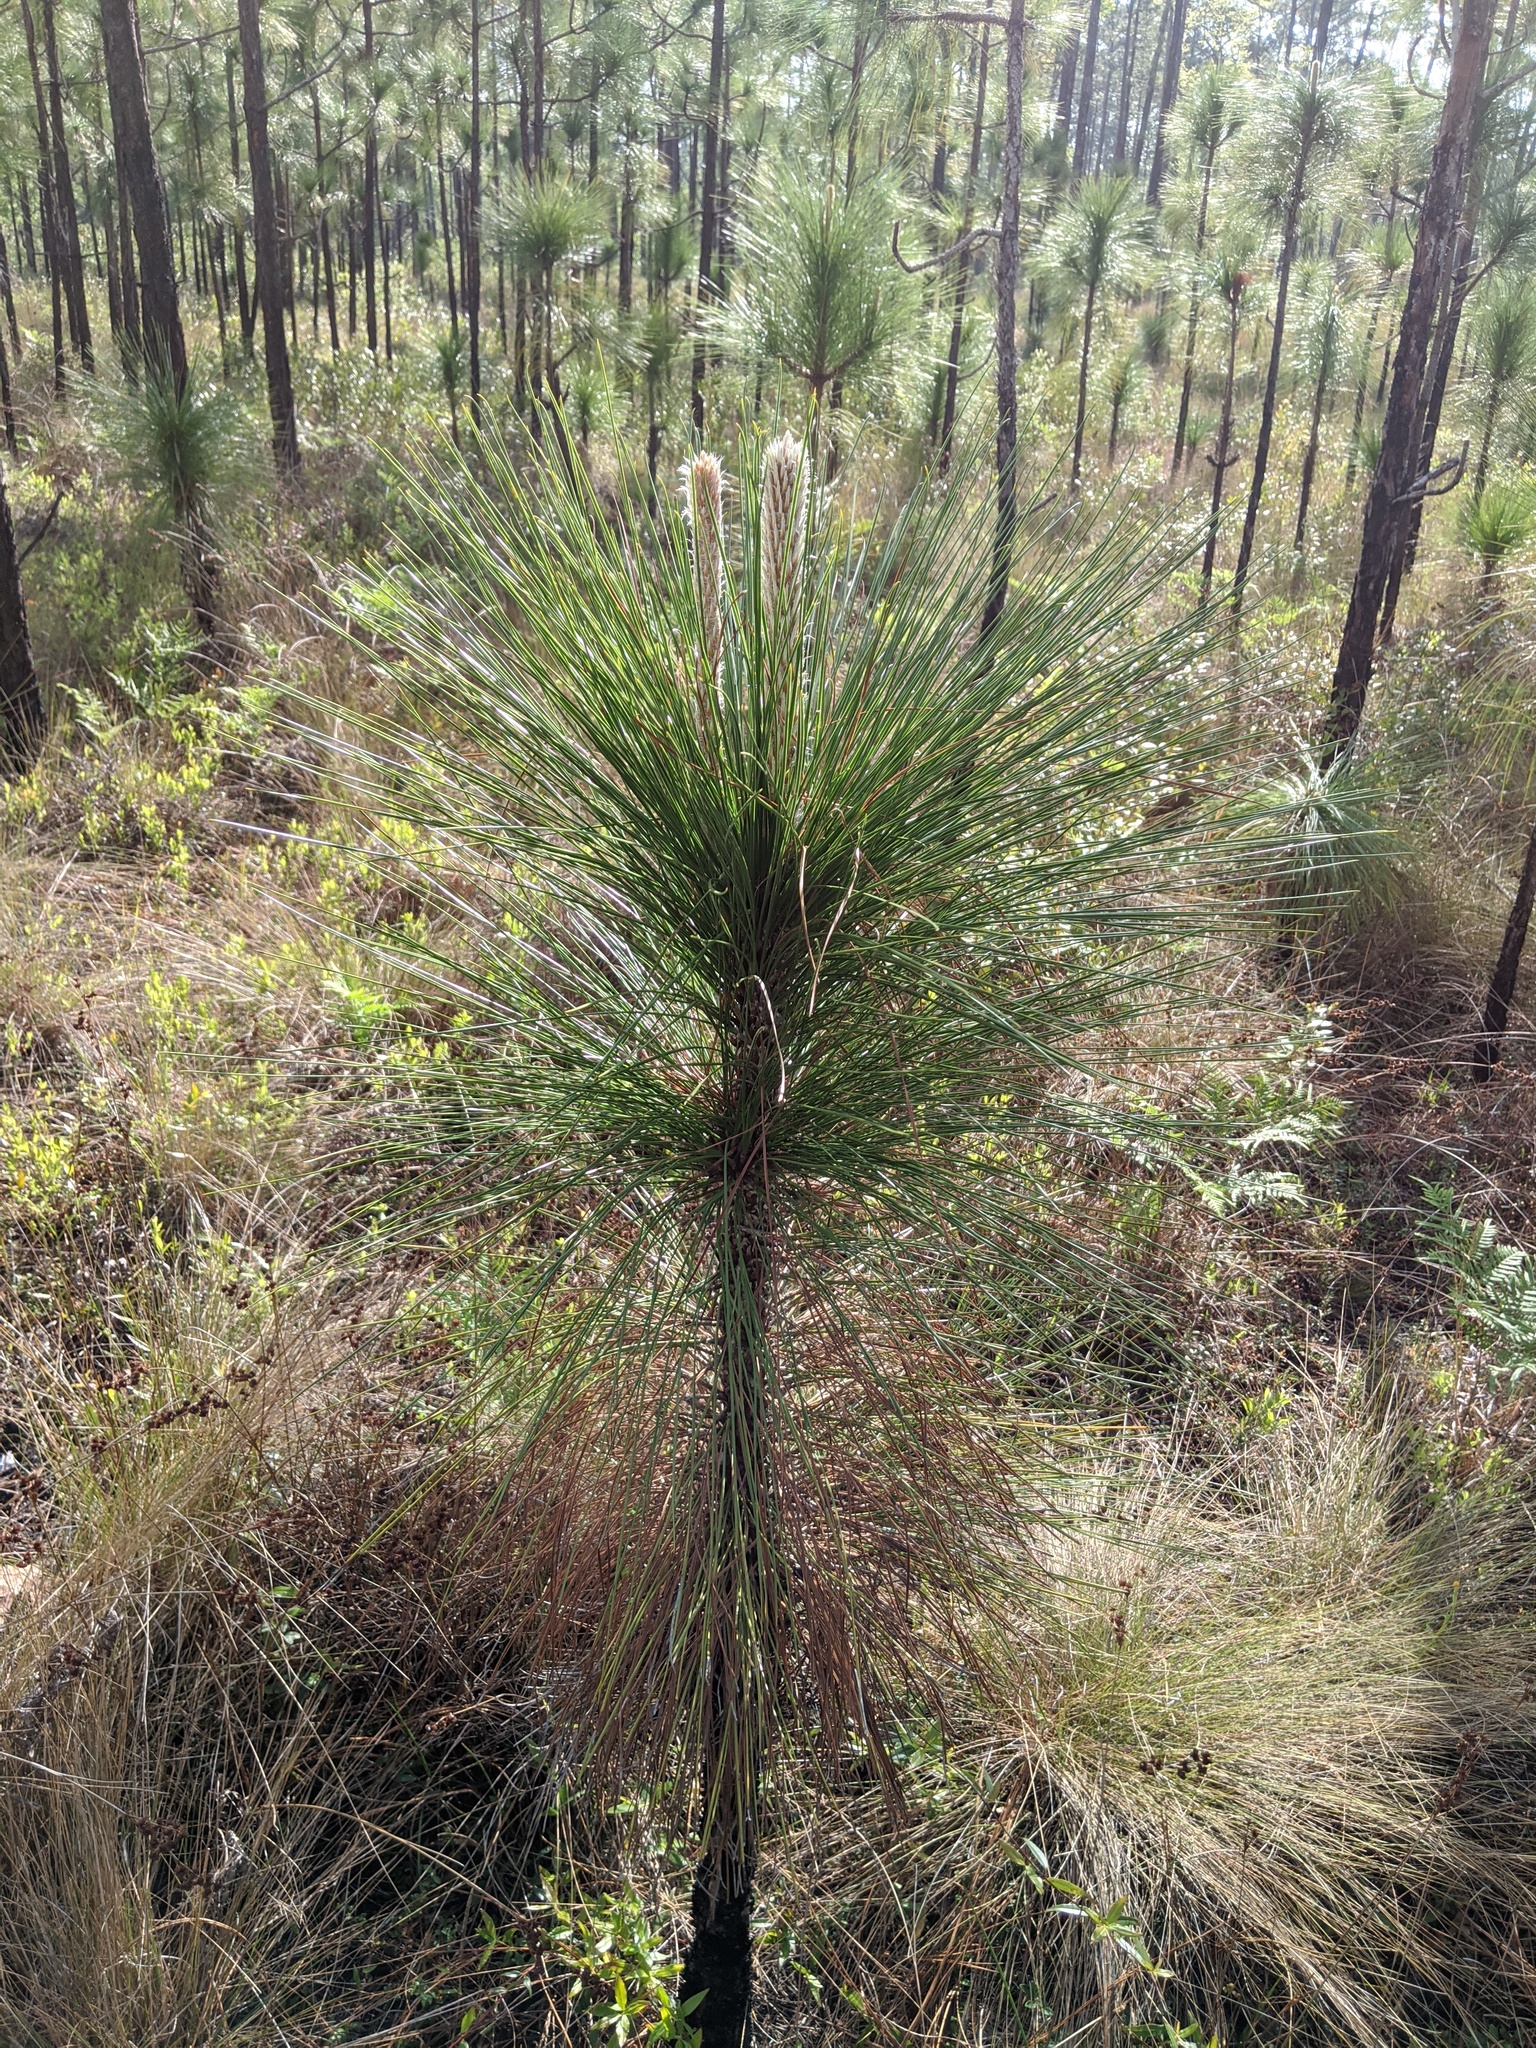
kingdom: Plantae
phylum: Tracheophyta
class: Pinopsida
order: Pinales
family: Pinaceae
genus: Pinus
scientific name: Pinus palustris
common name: Longleaf pine
